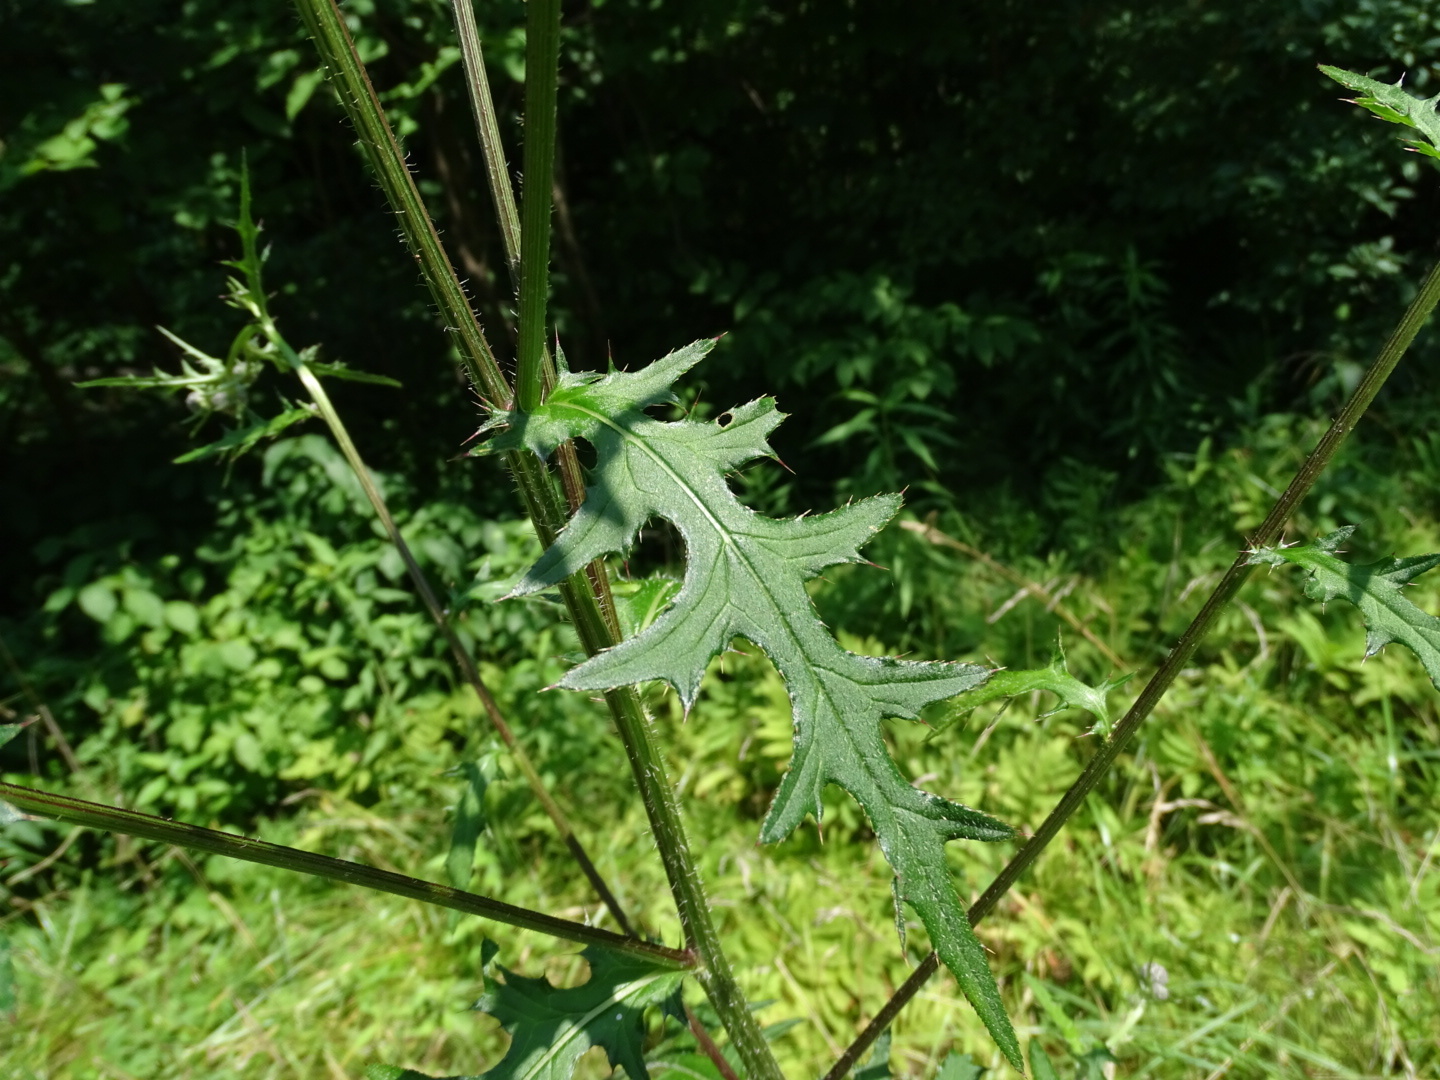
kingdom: Plantae
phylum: Tracheophyta
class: Magnoliopsida
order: Asterales
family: Asteraceae
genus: Cirsium
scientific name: Cirsium muticum
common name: Dunce-nettle
